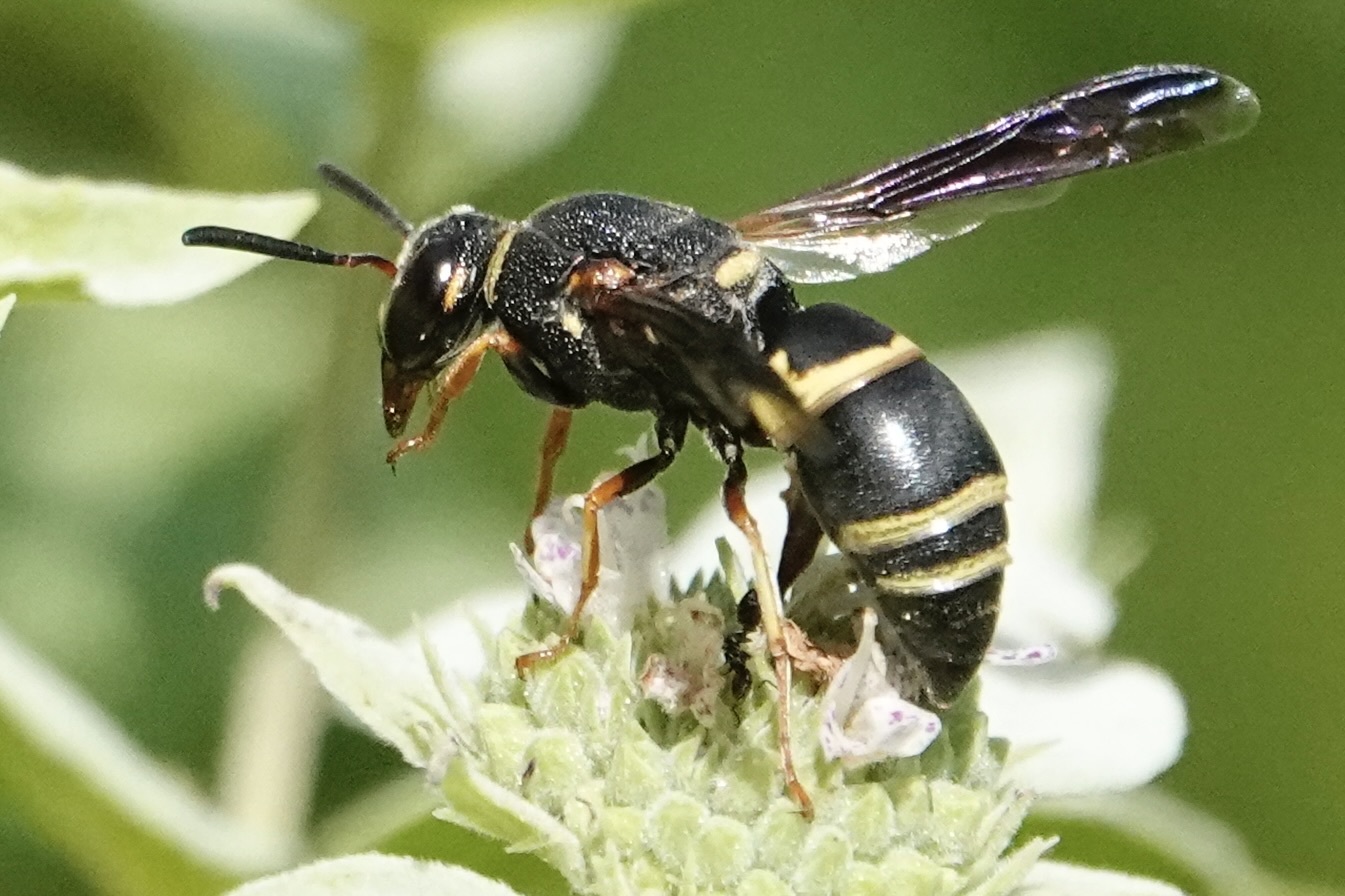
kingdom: Animalia
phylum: Arthropoda
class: Insecta
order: Hymenoptera
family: Eumenidae
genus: Euodynerus
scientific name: Euodynerus hidalgo
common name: Wasp
